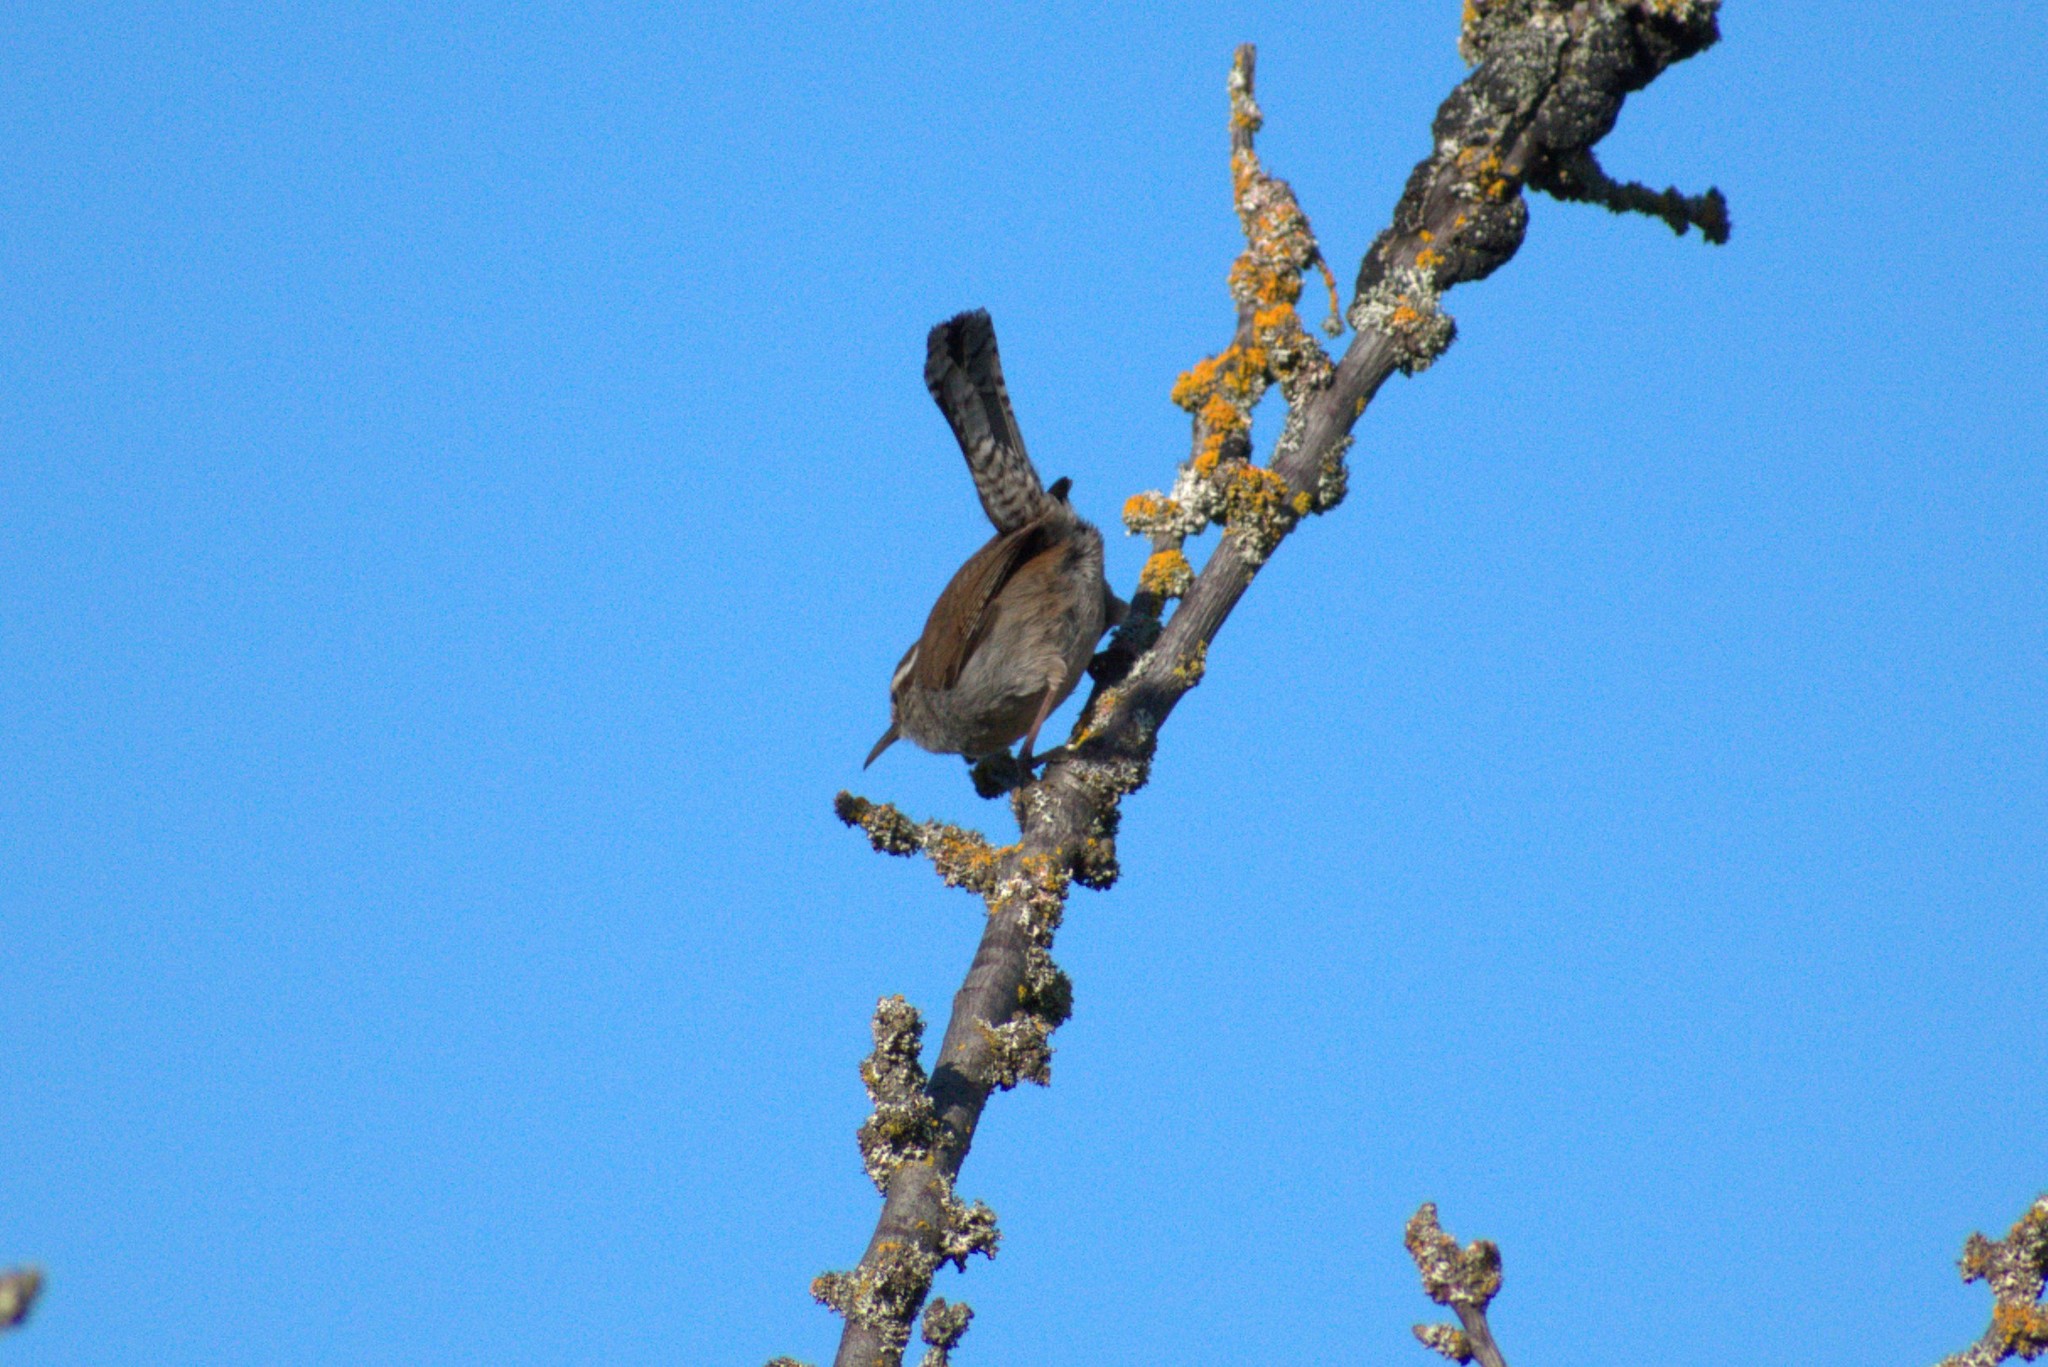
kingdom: Animalia
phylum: Chordata
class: Aves
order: Passeriformes
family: Troglodytidae
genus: Thryomanes
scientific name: Thryomanes bewickii
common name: Bewick's wren
